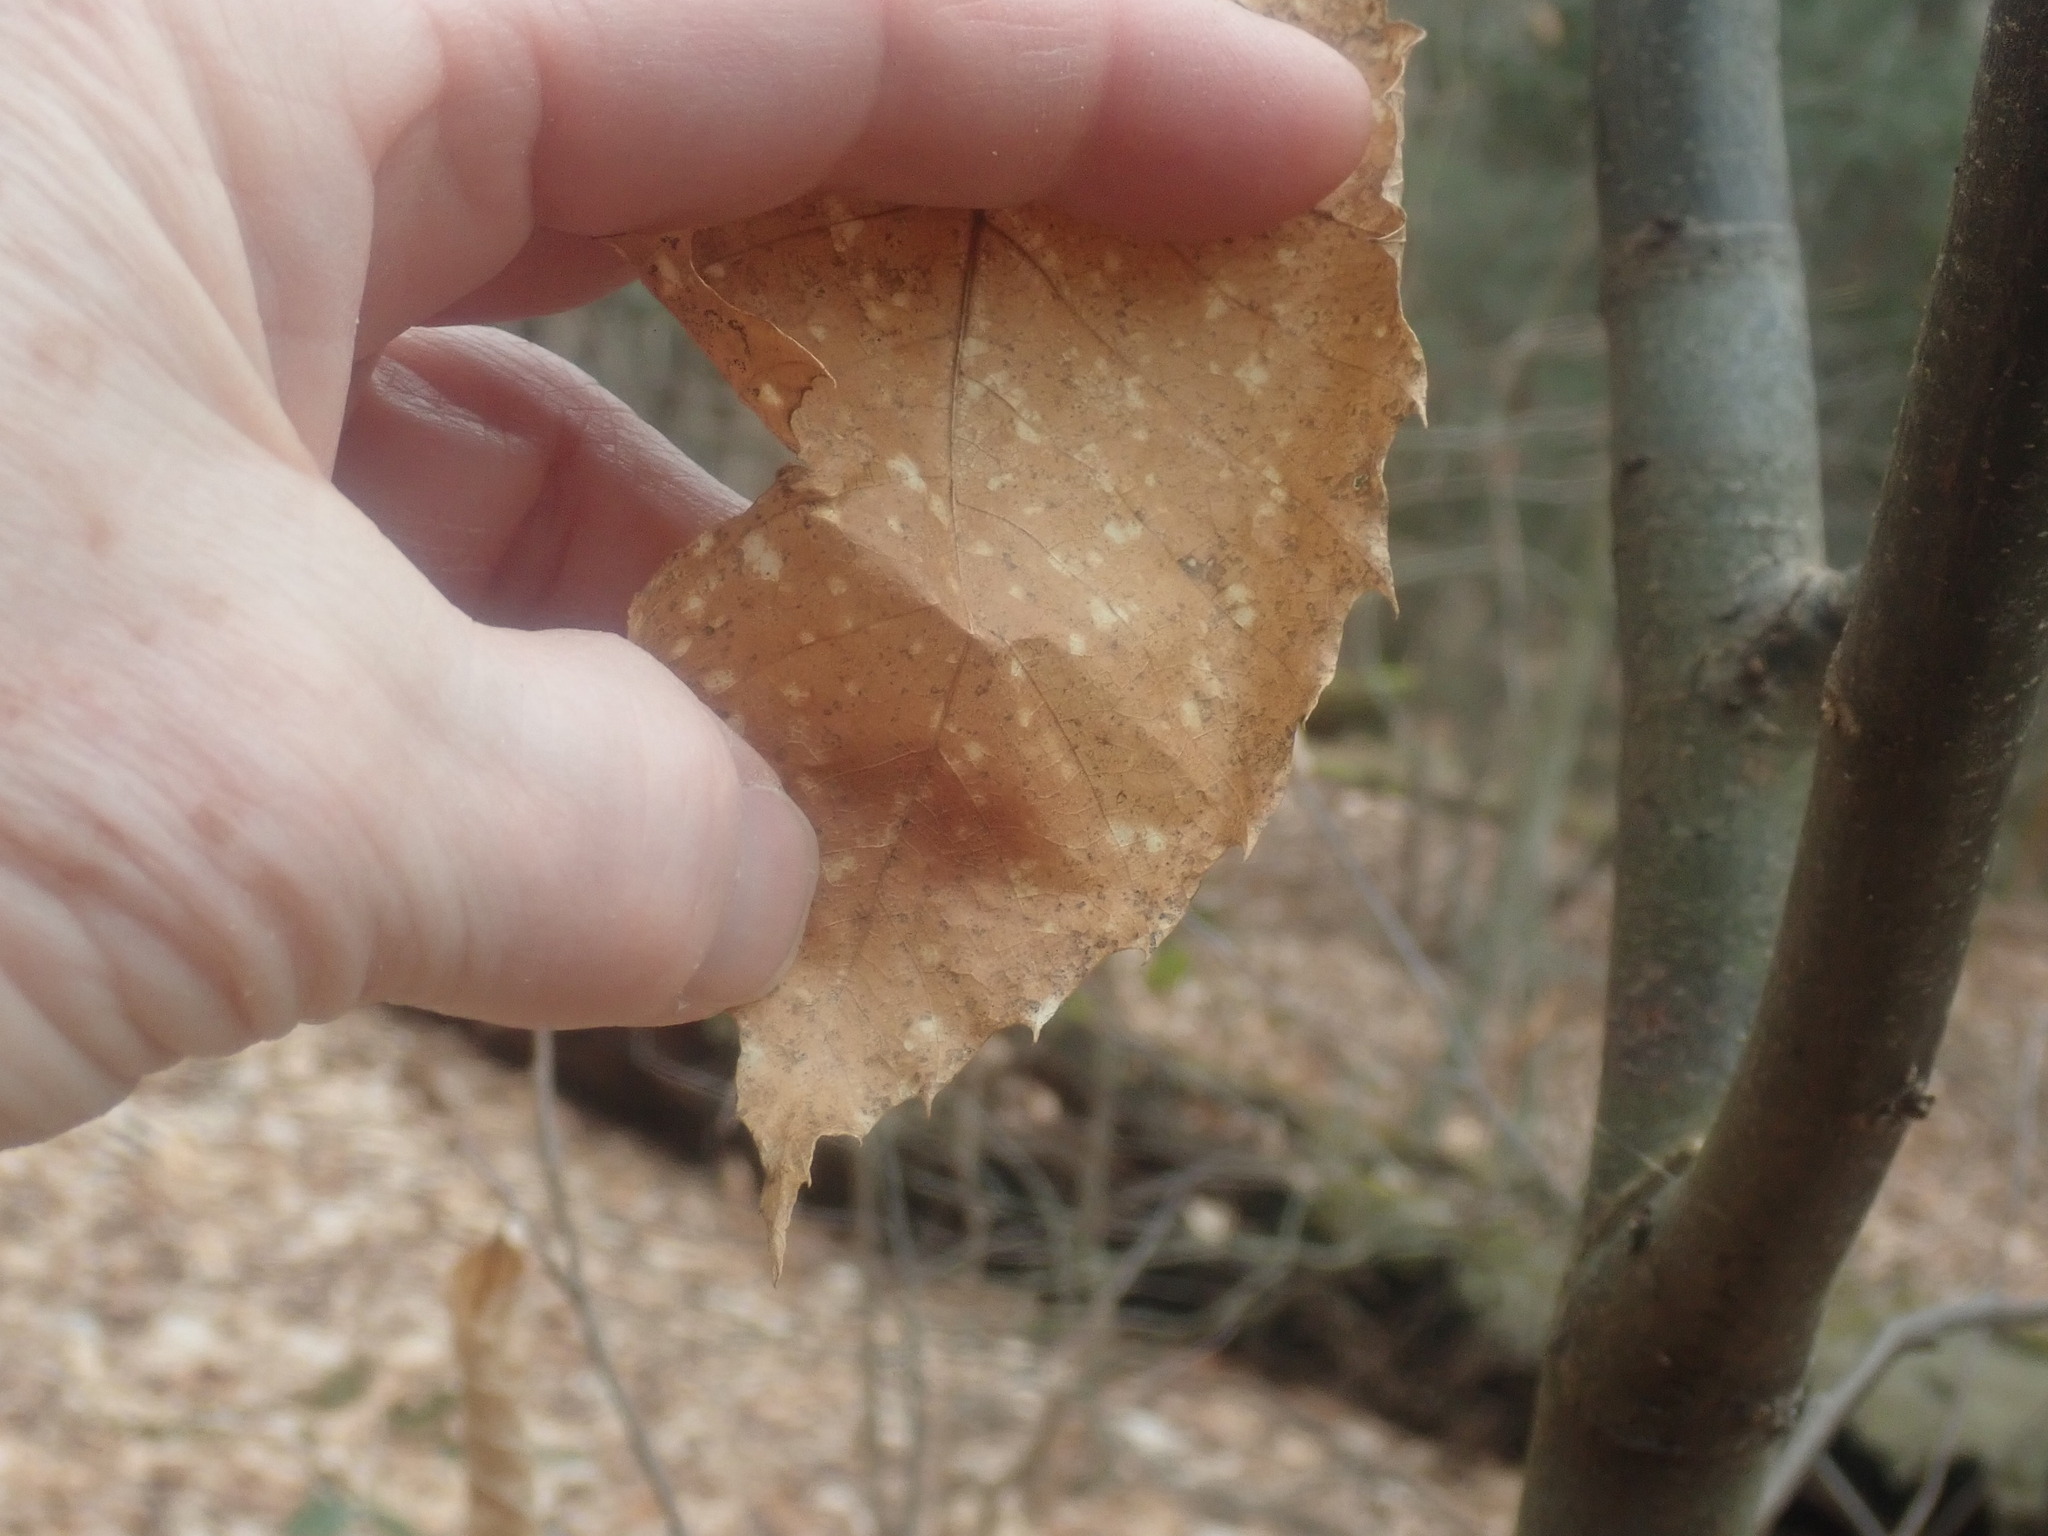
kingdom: Plantae
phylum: Tracheophyta
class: Magnoliopsida
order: Fagales
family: Fagaceae
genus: Castanea
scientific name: Castanea dentata
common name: American chestnut
